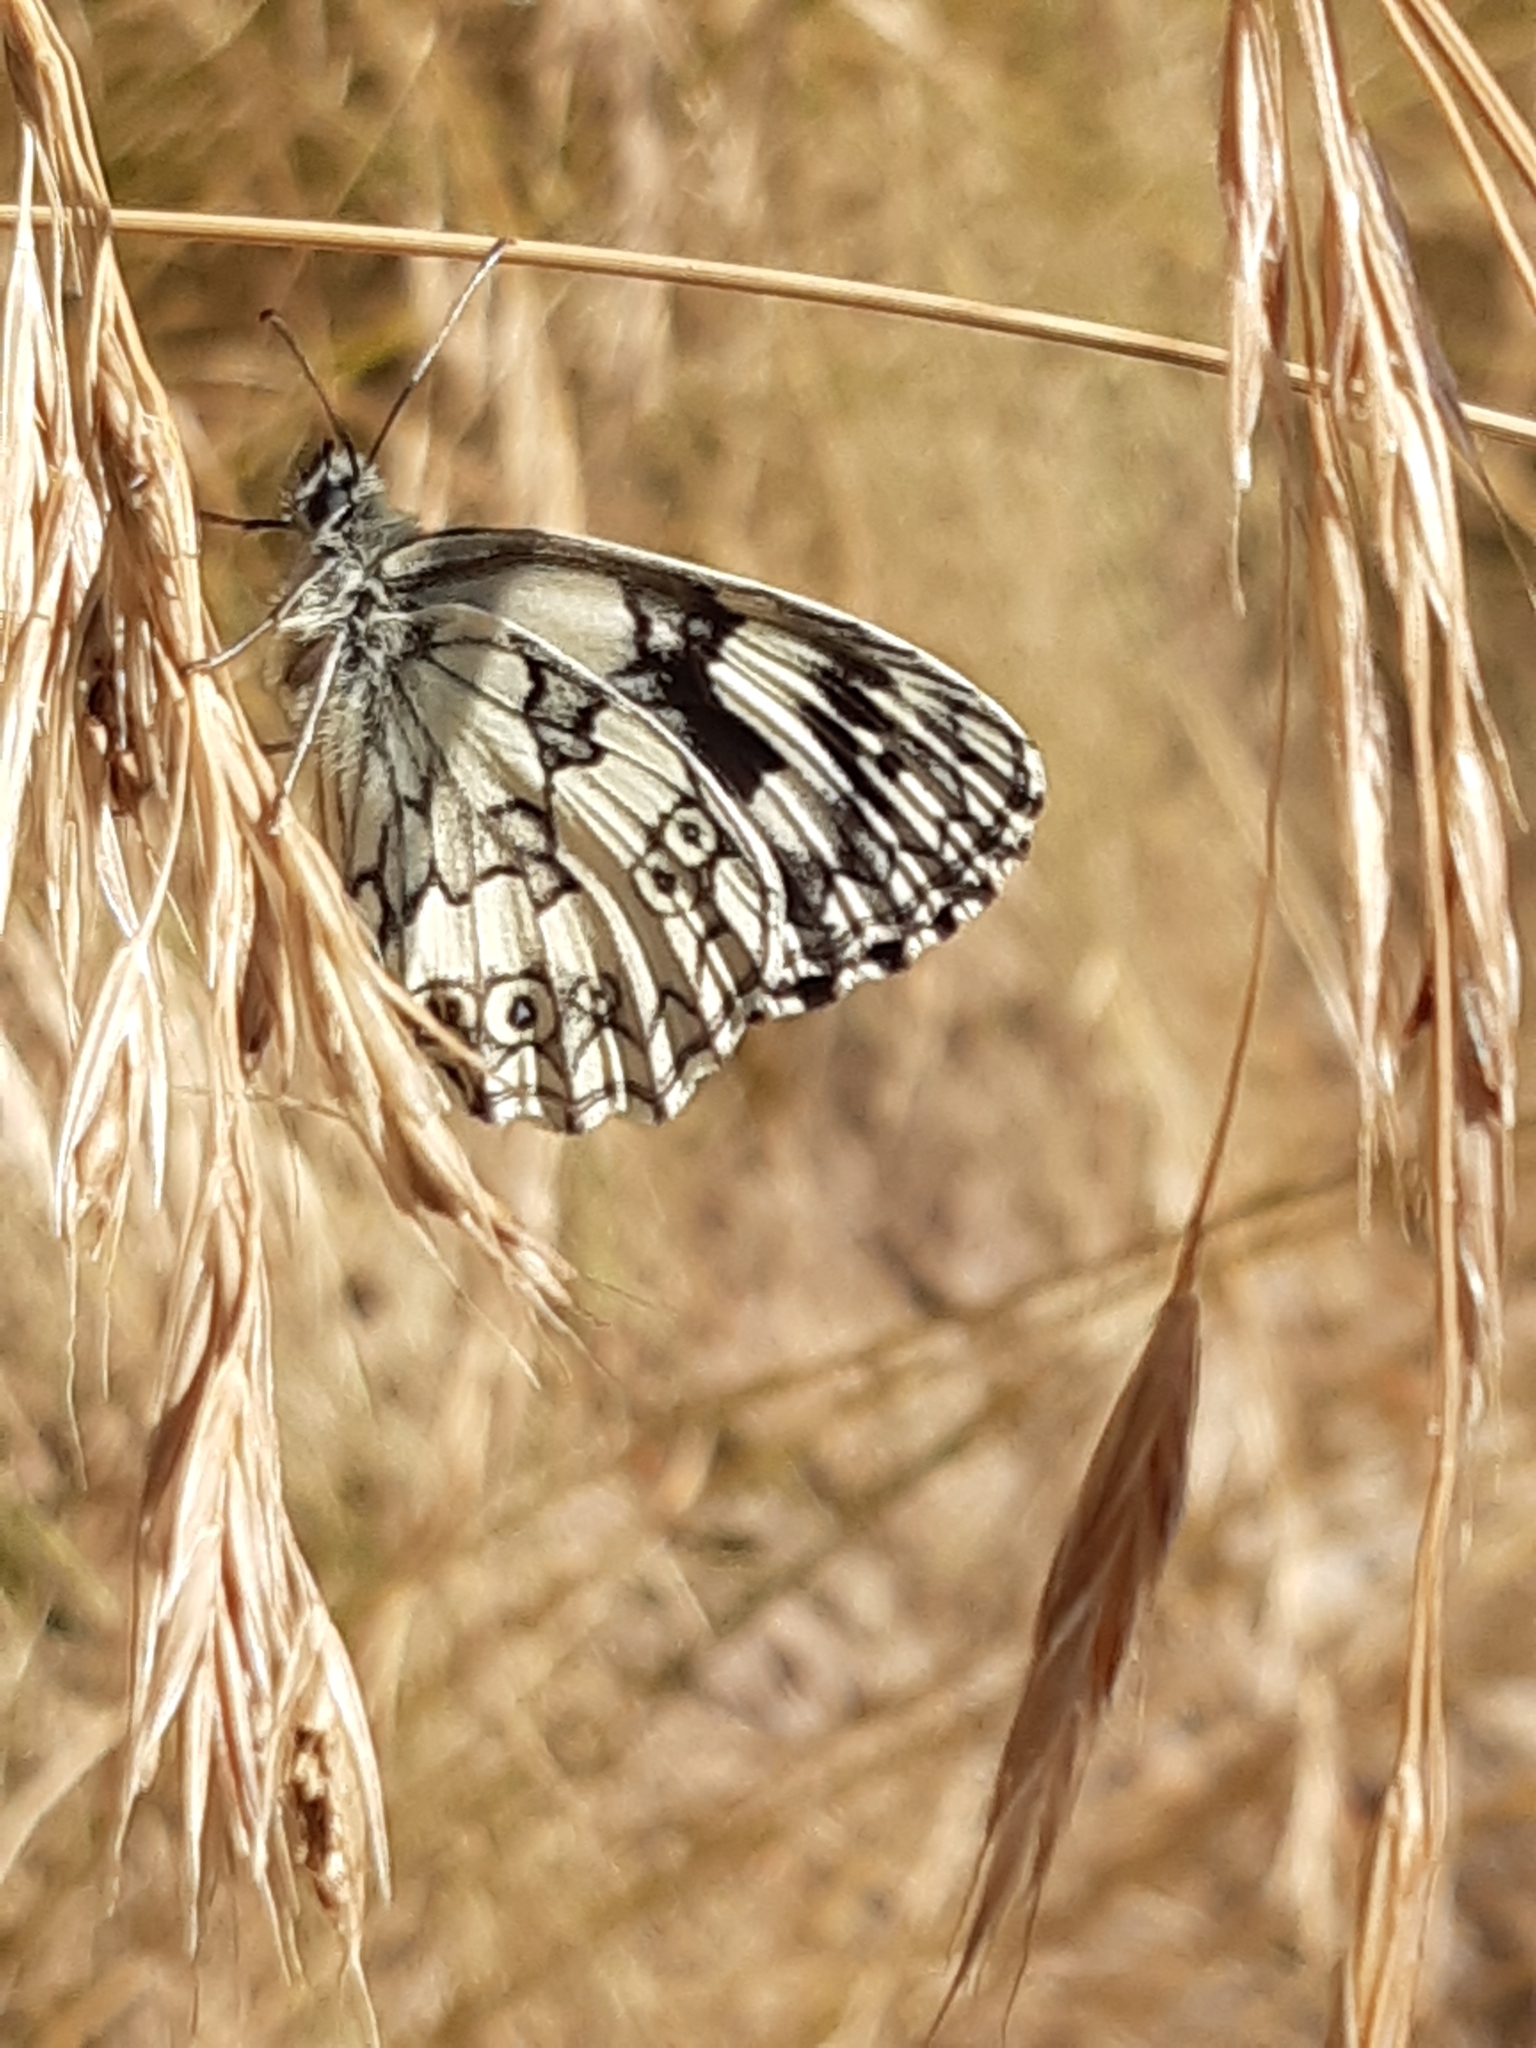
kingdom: Animalia
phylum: Arthropoda
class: Insecta
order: Lepidoptera
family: Nymphalidae
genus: Melanargia
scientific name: Melanargia galathea
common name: Marbled white
